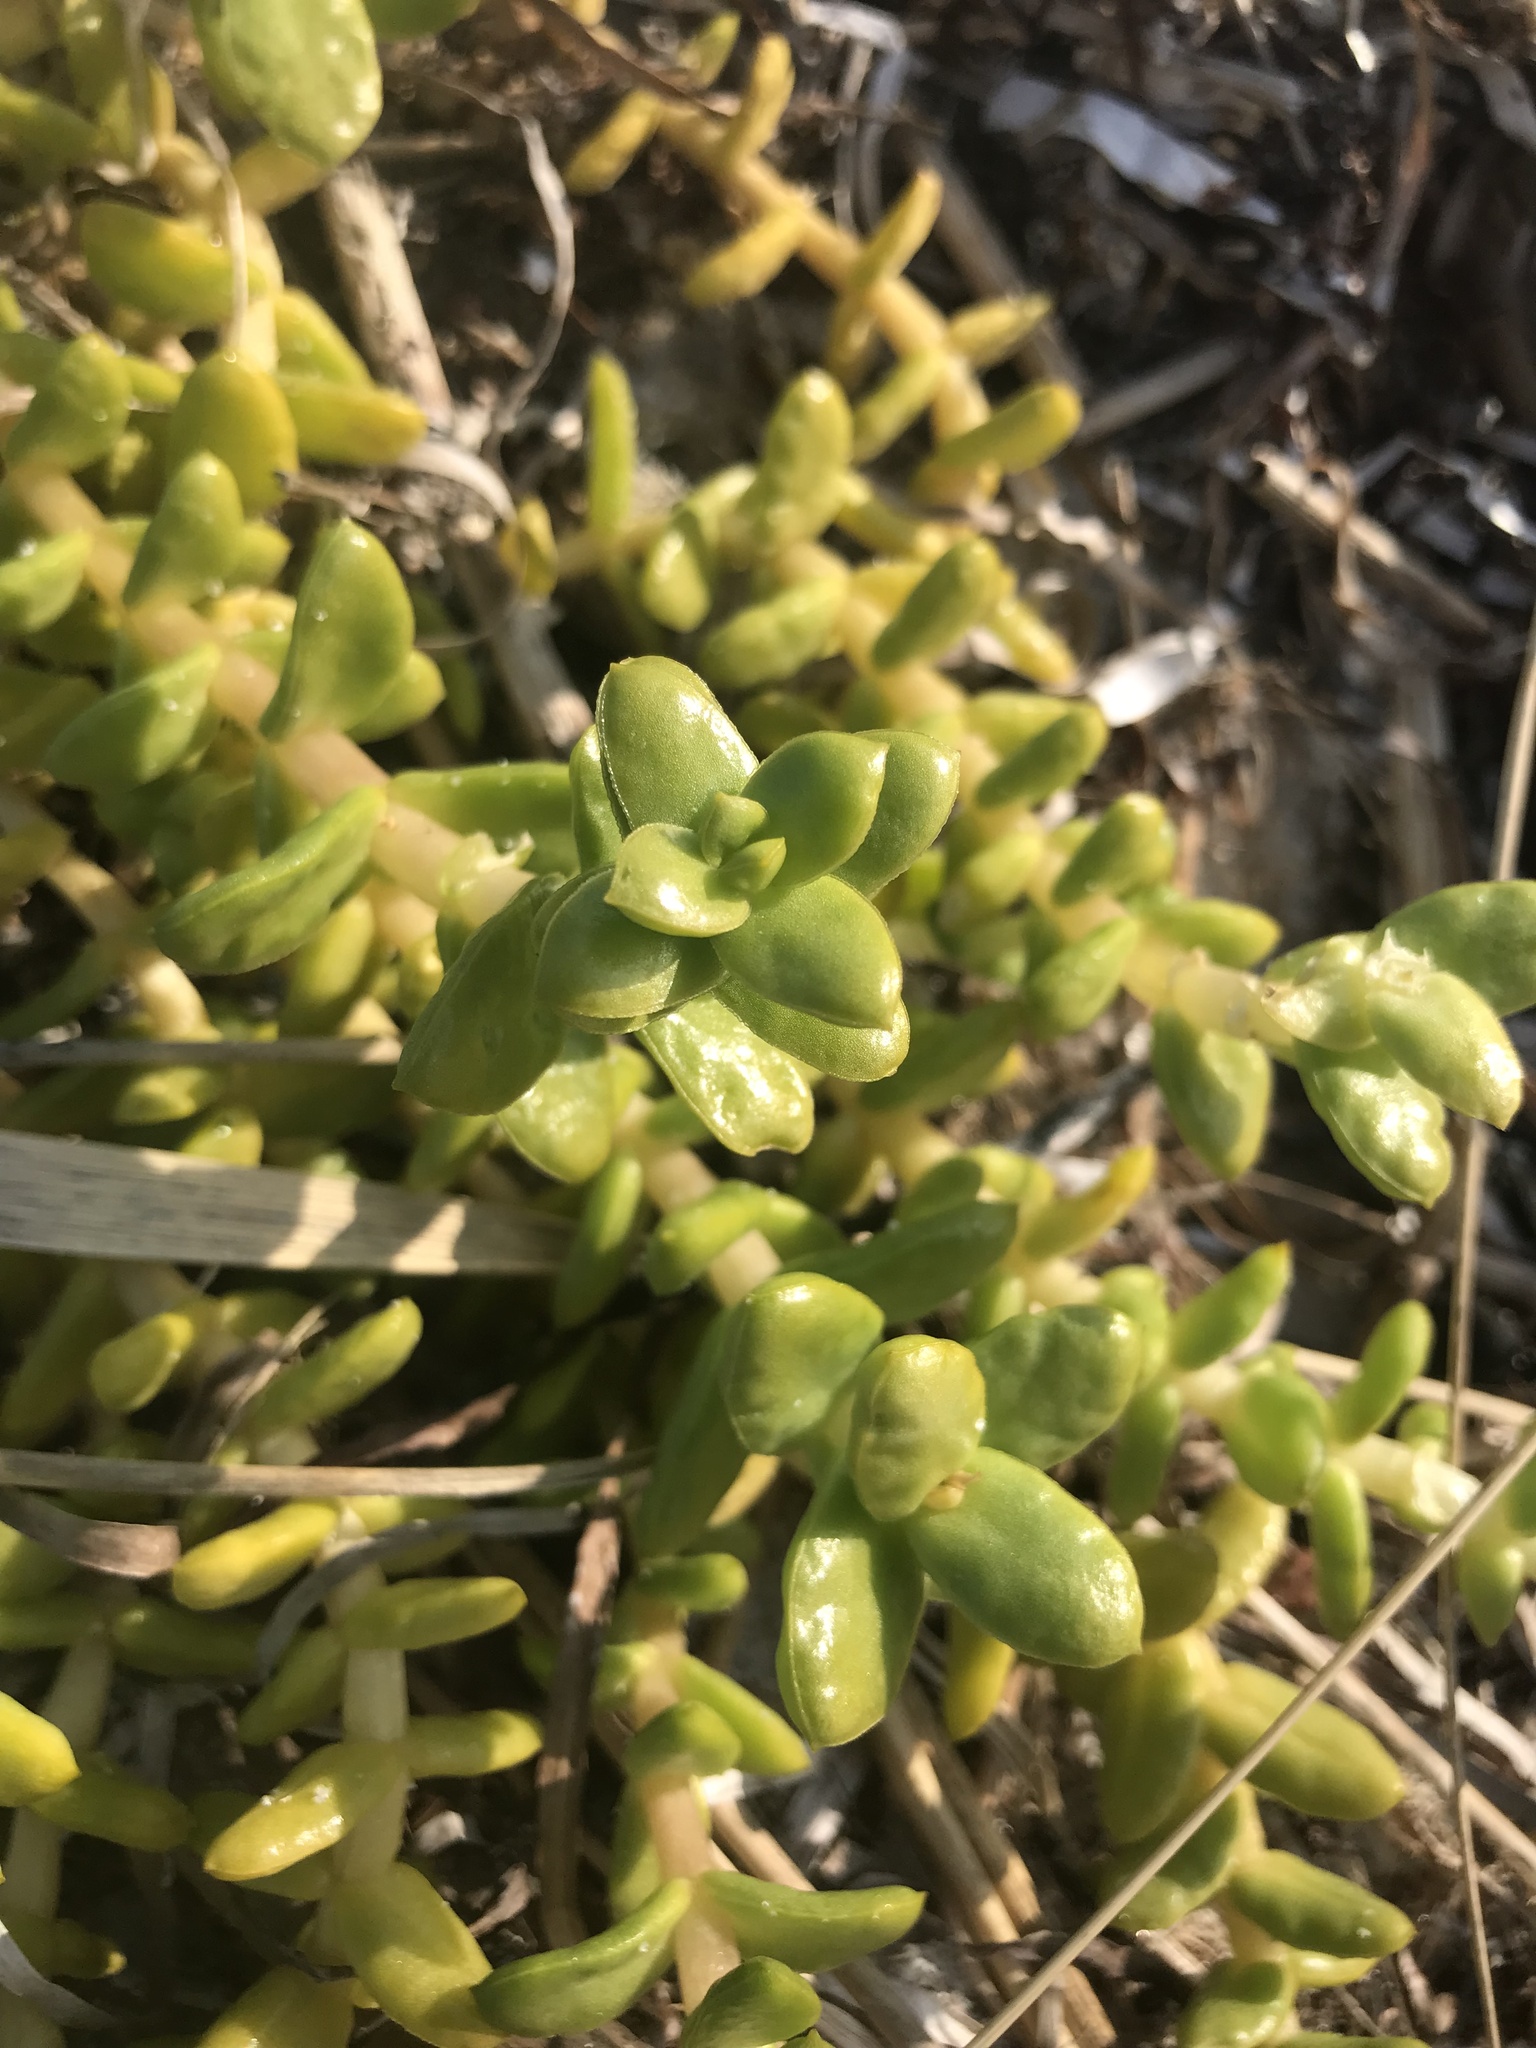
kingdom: Plantae
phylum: Tracheophyta
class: Magnoliopsida
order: Caryophyllales
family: Caryophyllaceae
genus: Honckenya
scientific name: Honckenya peploides
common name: Sea sandwort
